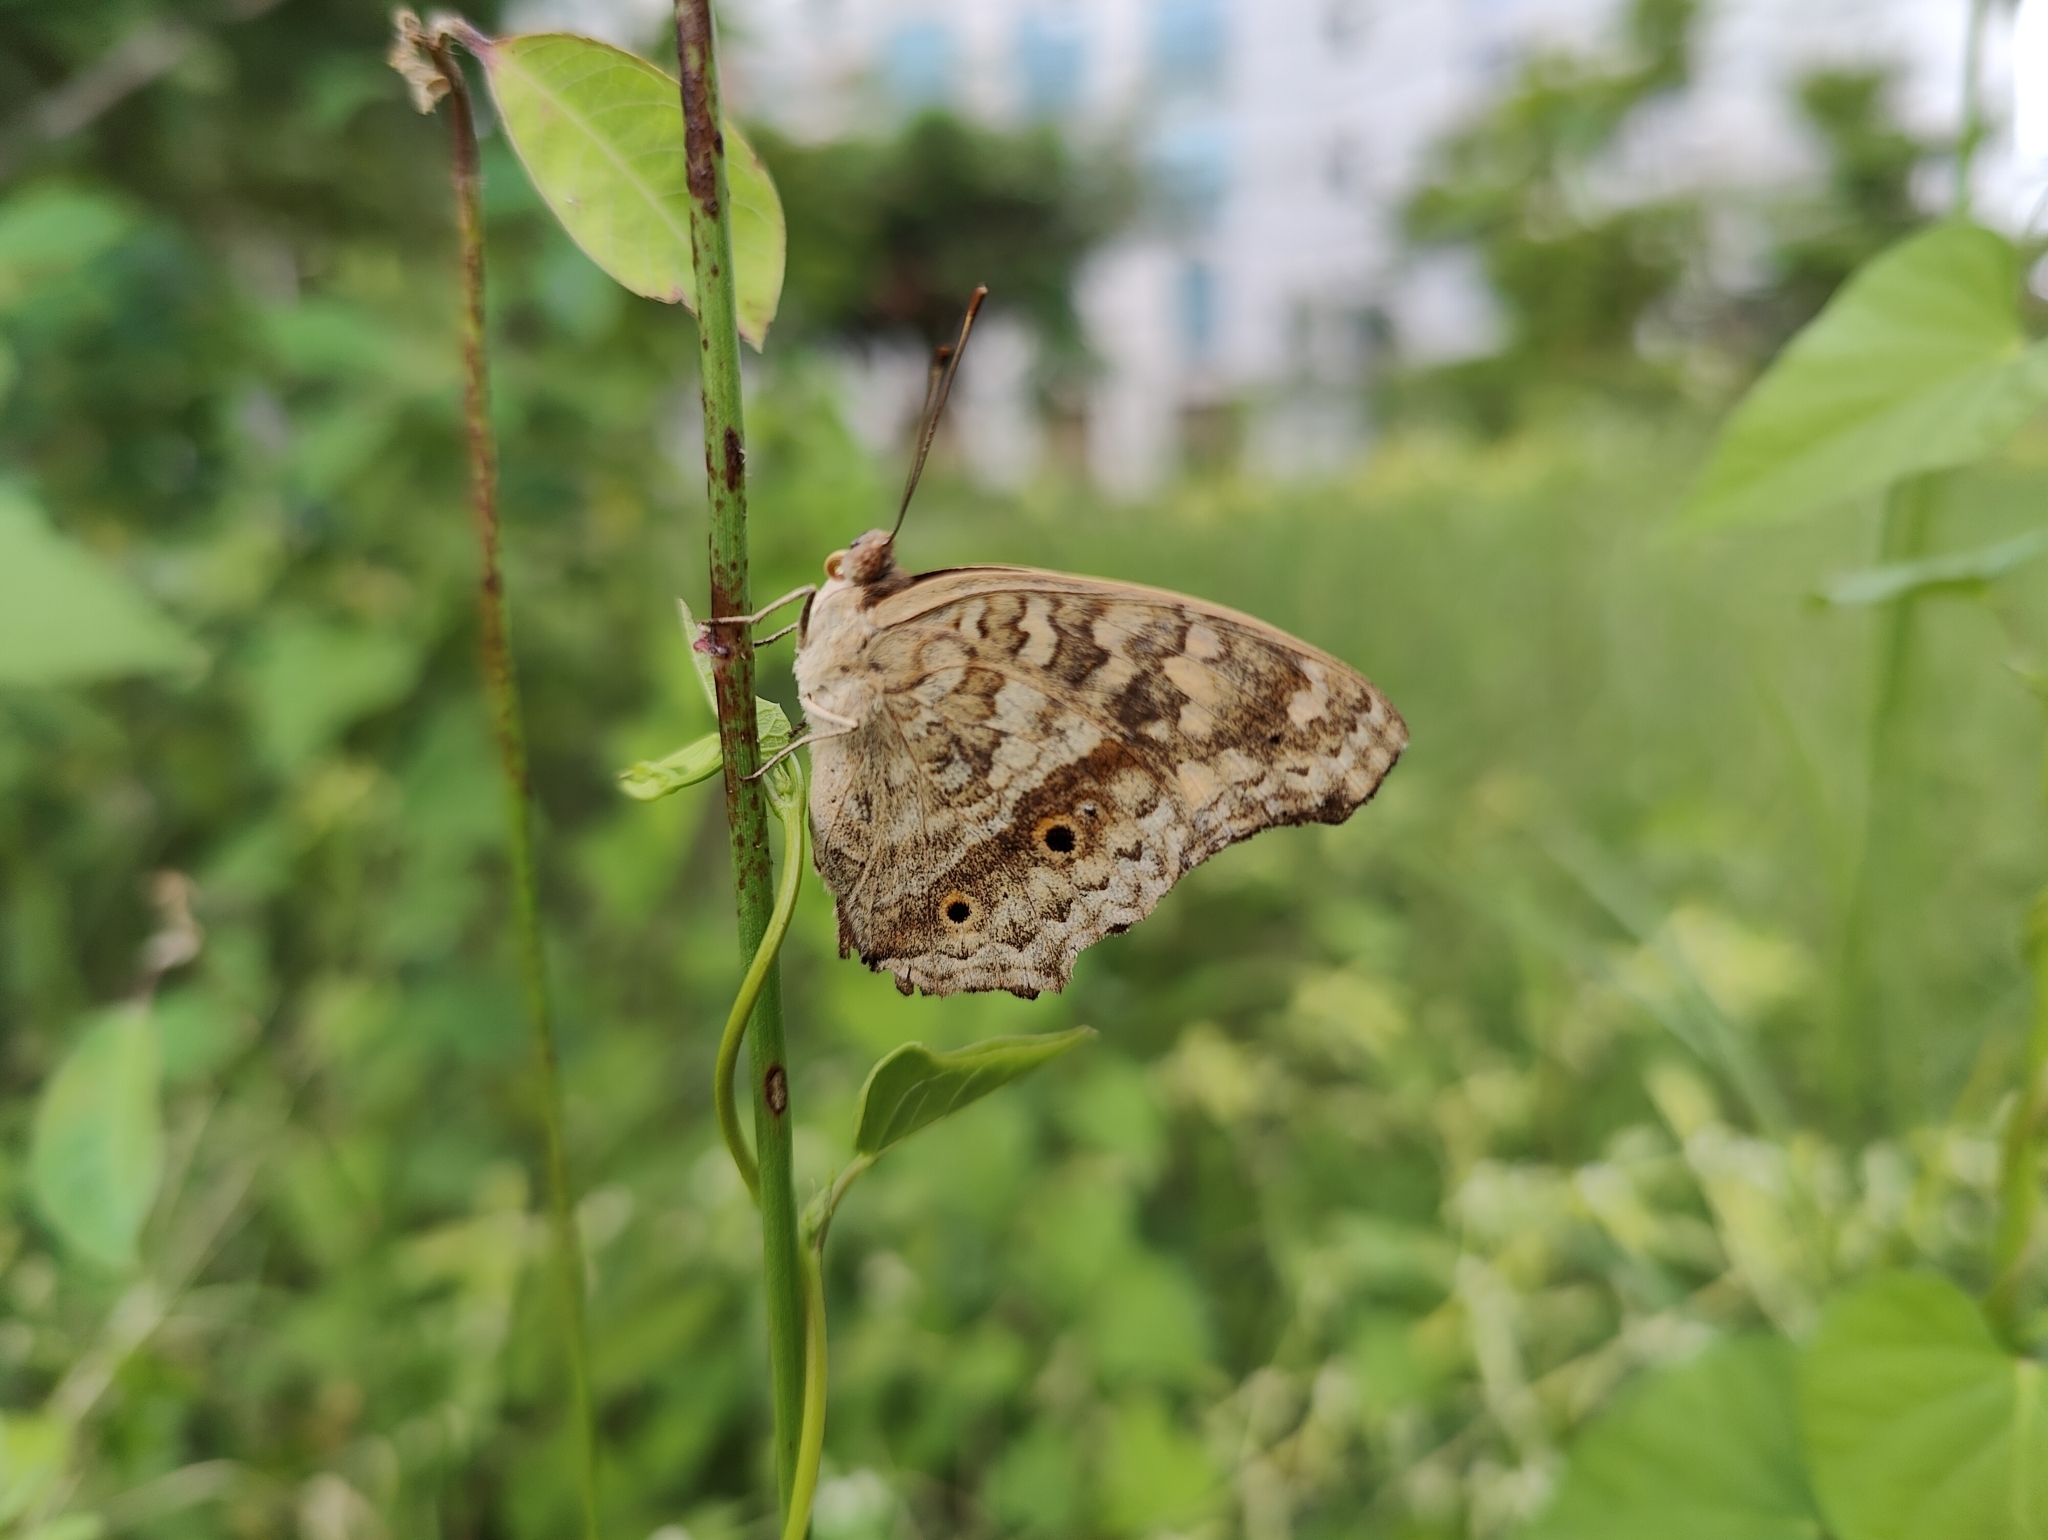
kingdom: Animalia
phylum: Arthropoda
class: Insecta
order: Lepidoptera
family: Nymphalidae
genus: Junonia
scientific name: Junonia lemonias
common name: Lemon pansy
